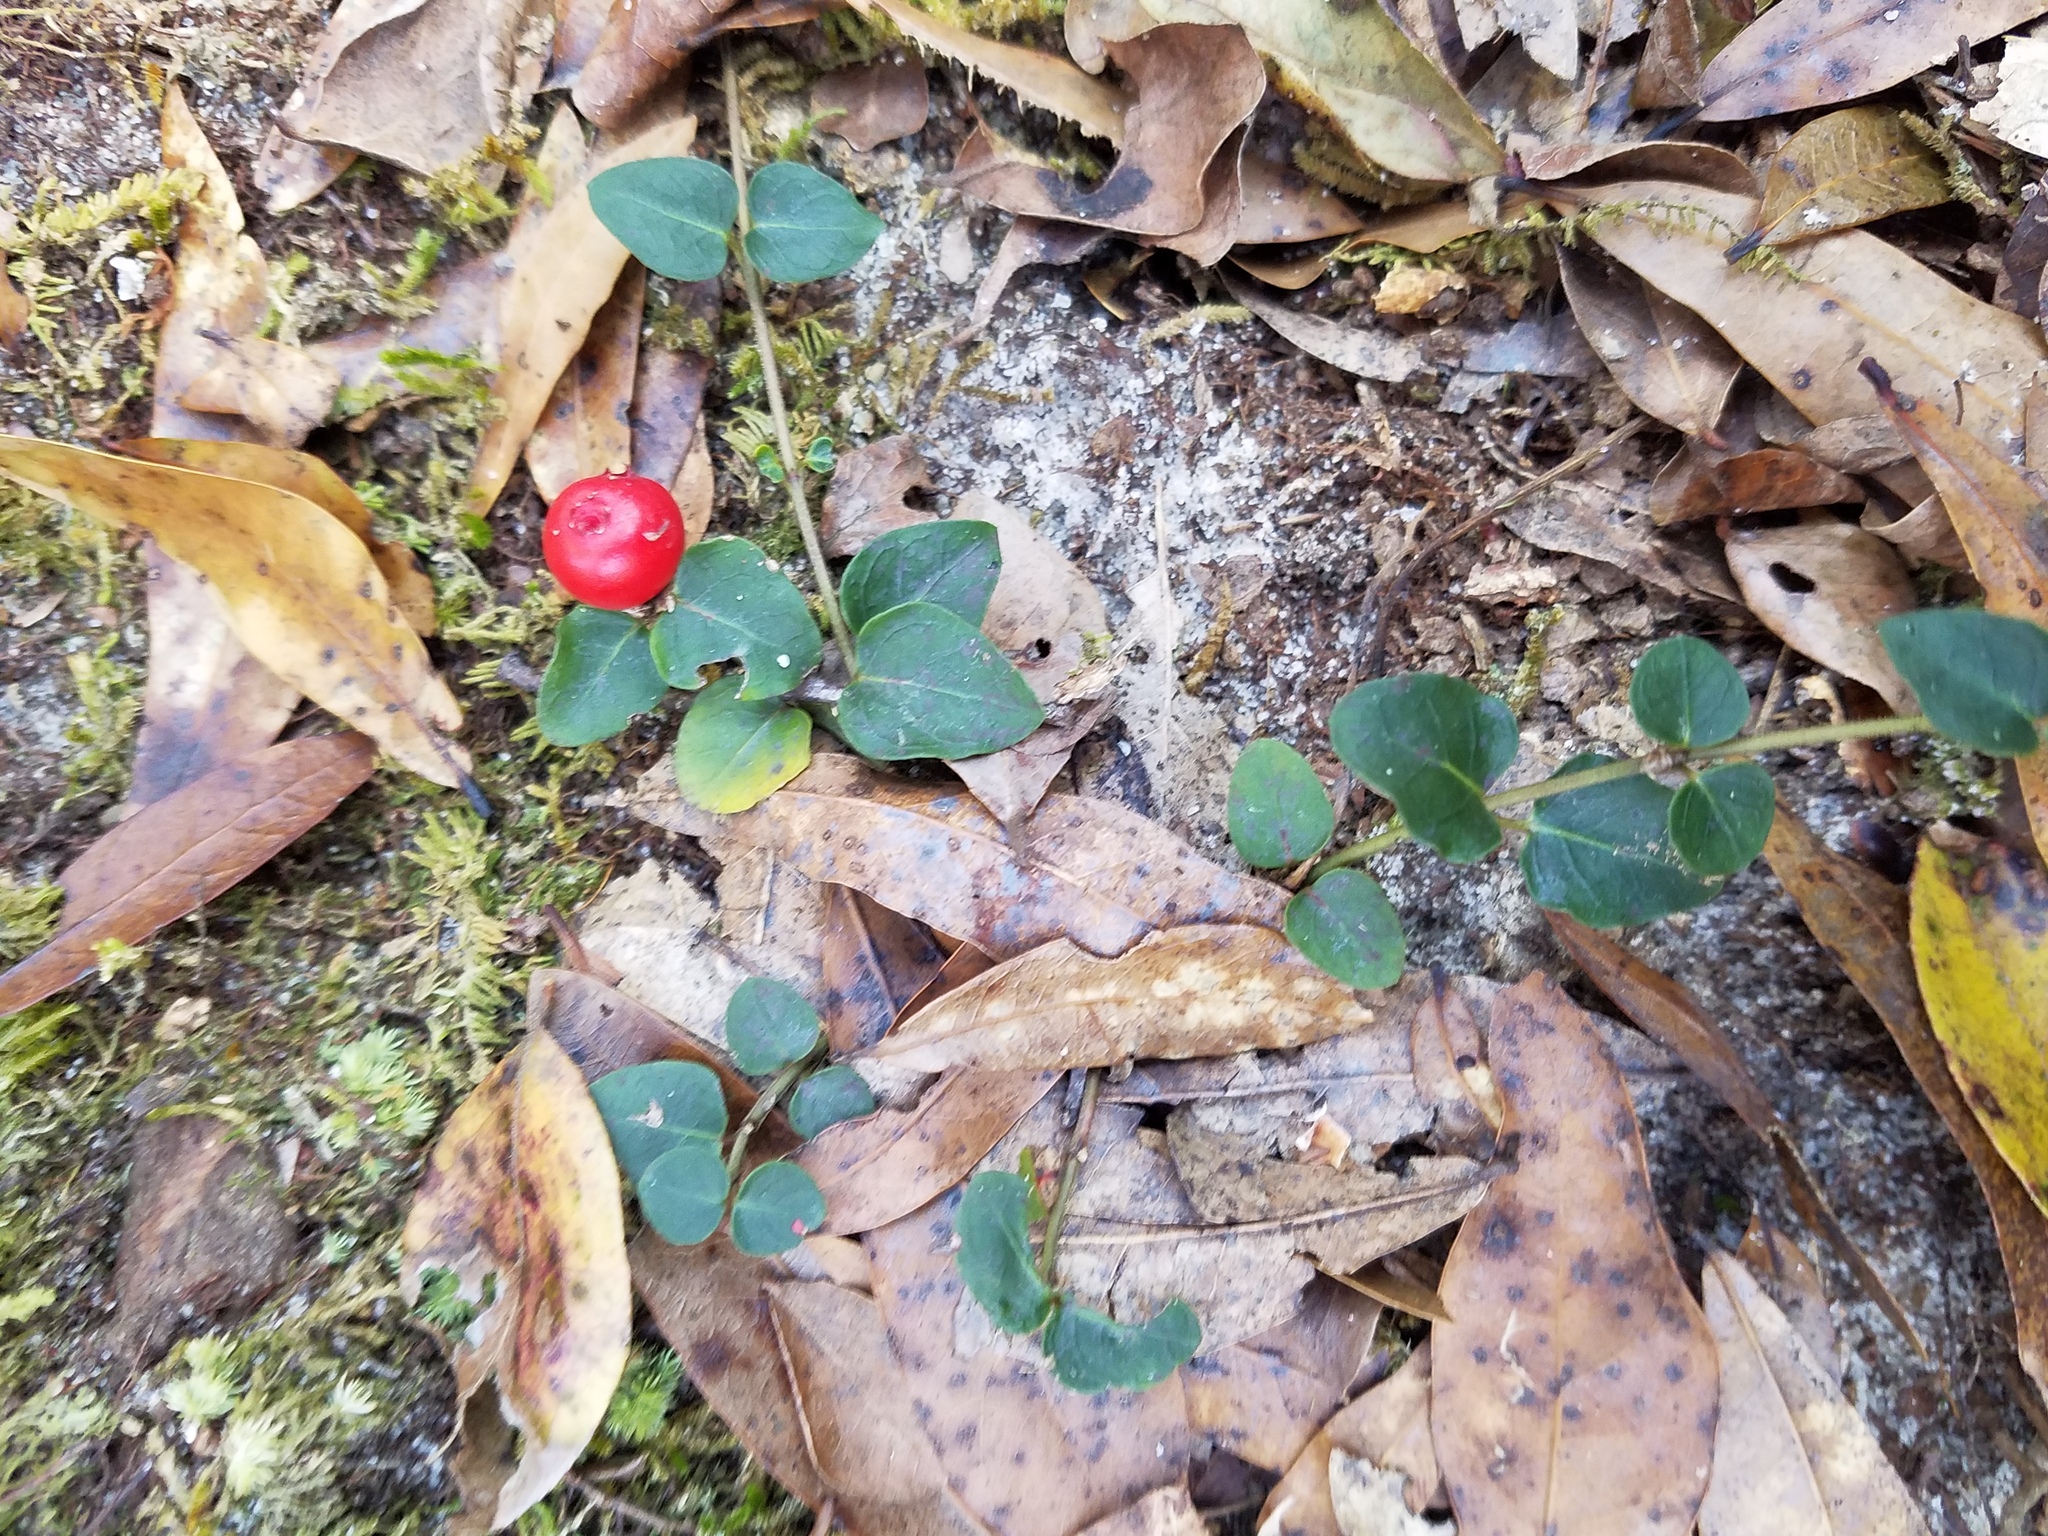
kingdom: Plantae
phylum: Tracheophyta
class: Magnoliopsida
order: Gentianales
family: Rubiaceae
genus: Mitchella
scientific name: Mitchella repens
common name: Partridge-berry
